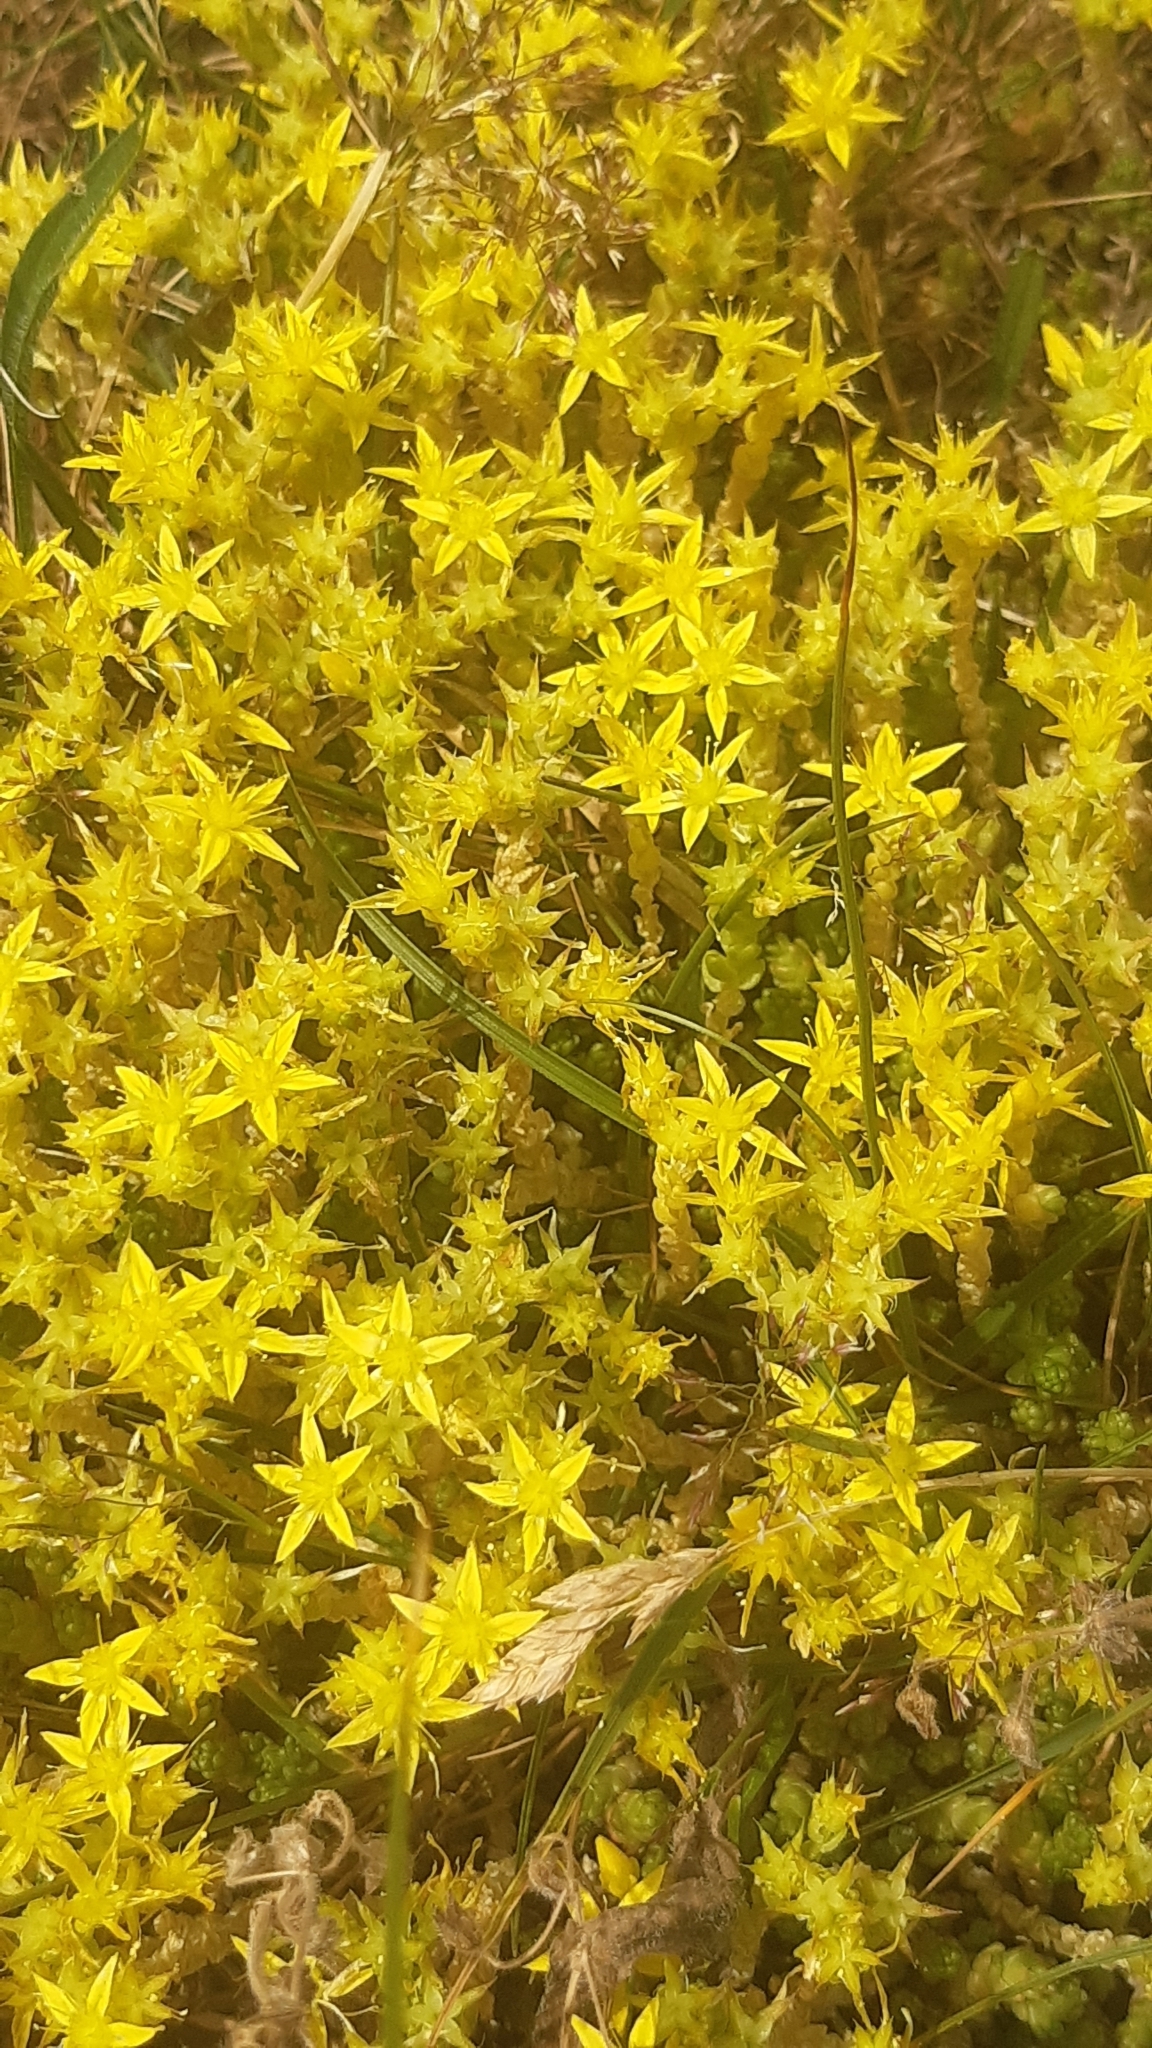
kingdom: Plantae
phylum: Tracheophyta
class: Magnoliopsida
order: Saxifragales
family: Crassulaceae
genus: Sedum
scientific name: Sedum acre
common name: Biting stonecrop
